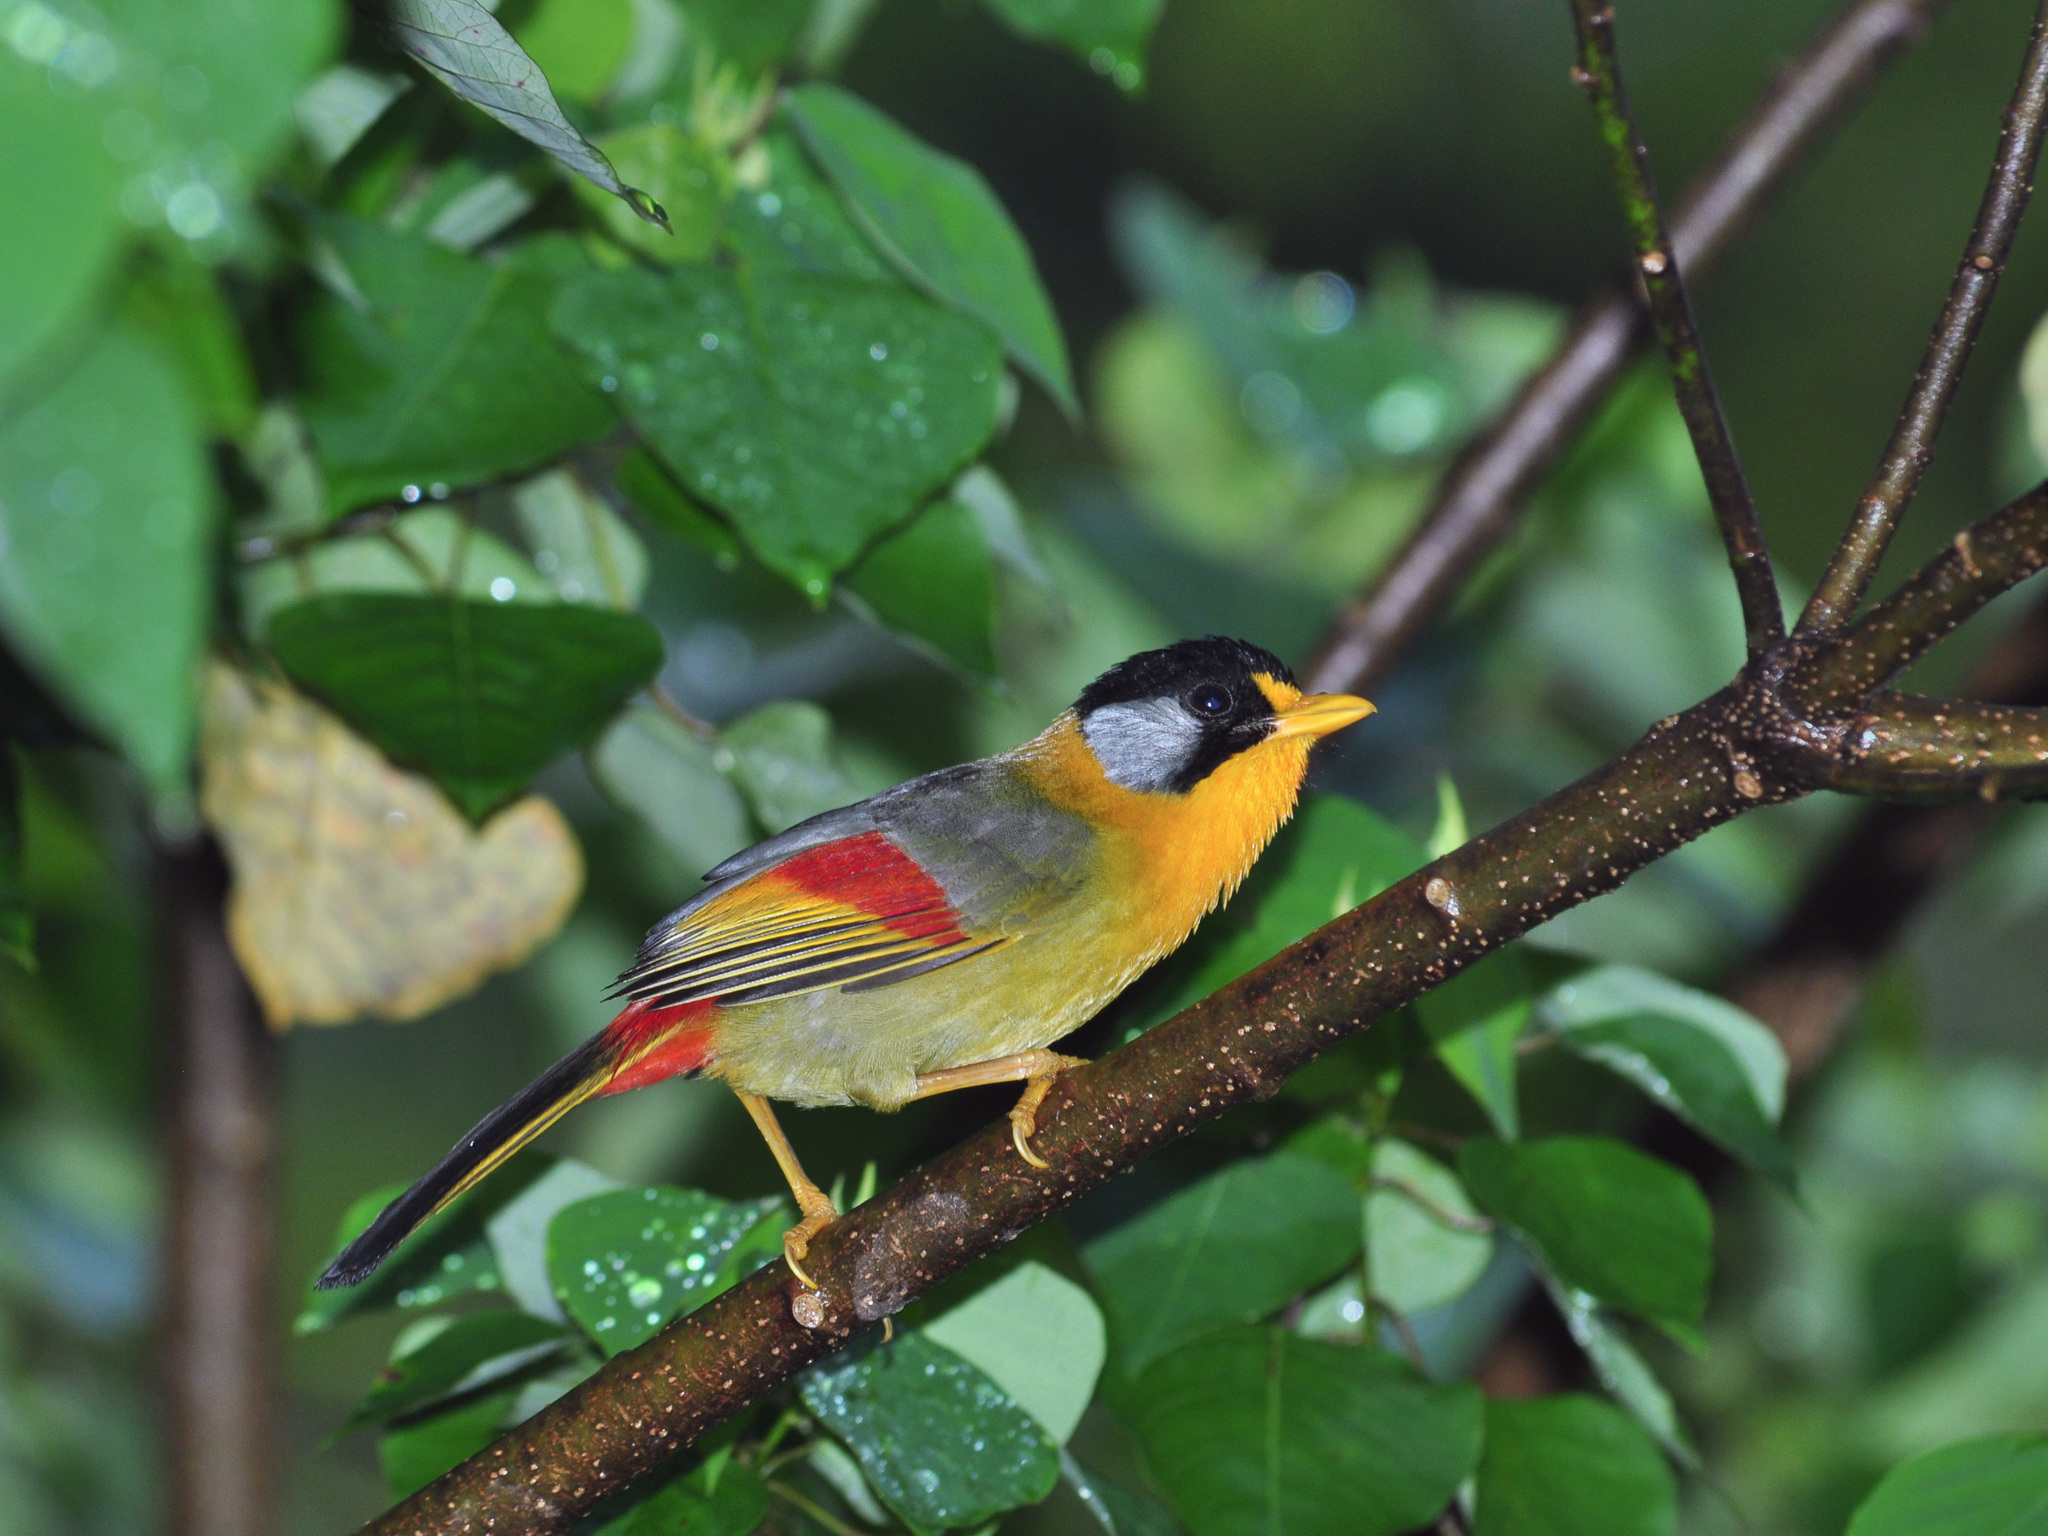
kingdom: Animalia
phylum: Chordata
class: Aves
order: Passeriformes
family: Leiothrichidae
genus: Leiothrix
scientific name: Leiothrix argentauris
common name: Silver-eared mesia
